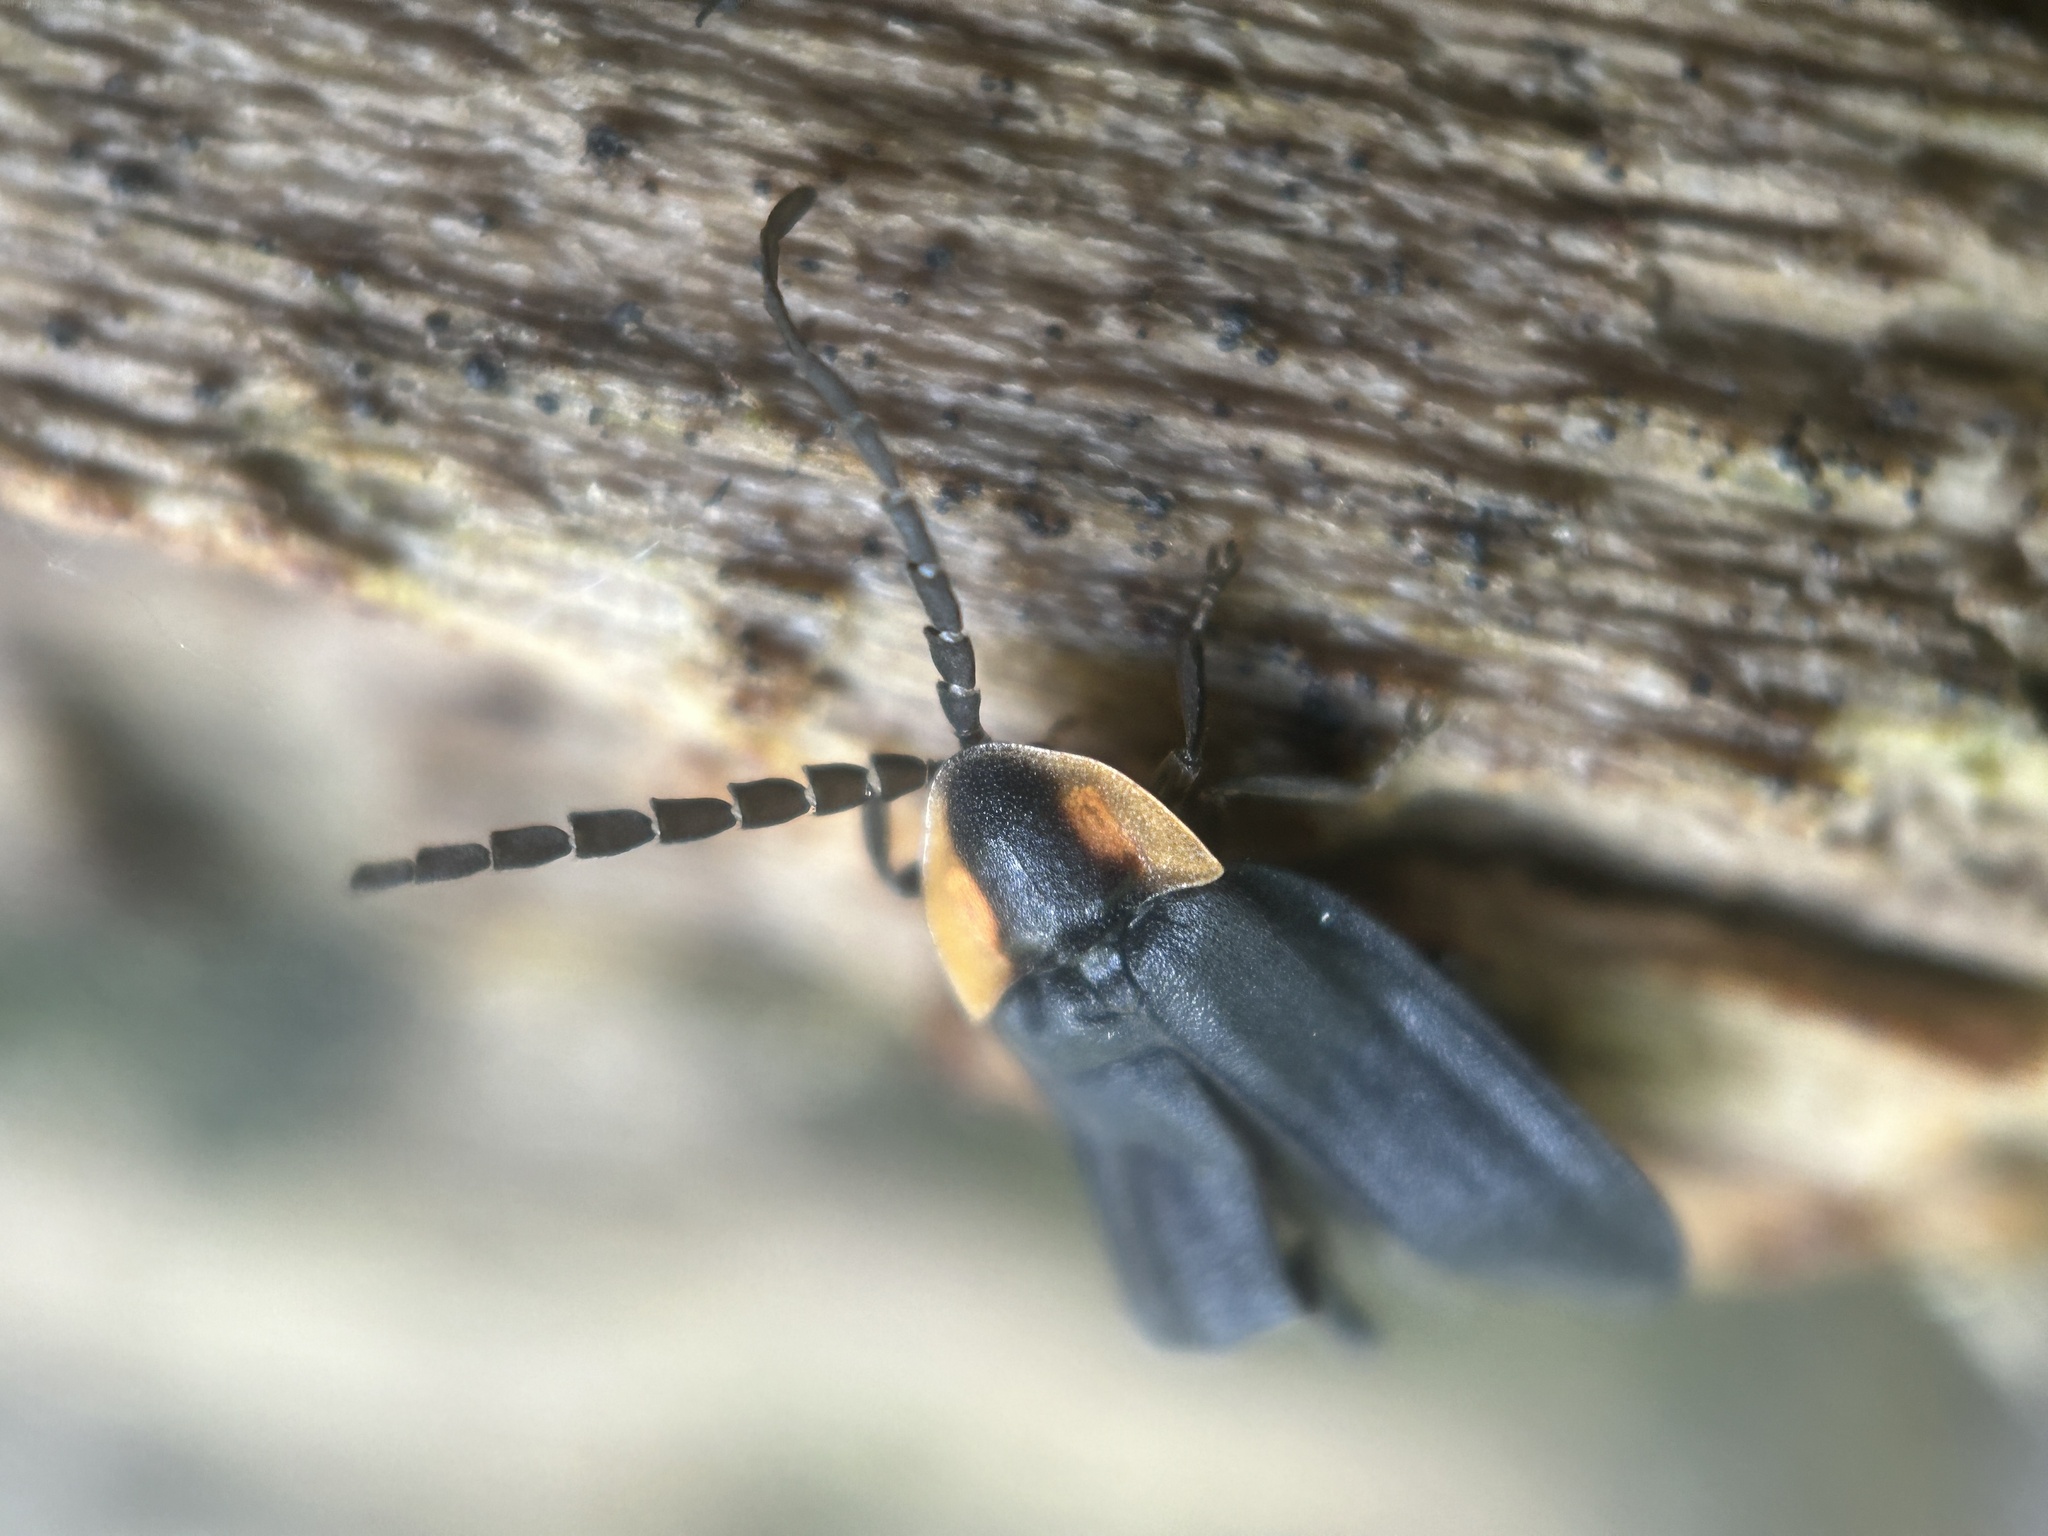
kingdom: Animalia
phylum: Arthropoda
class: Insecta
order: Coleoptera
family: Lampyridae
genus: Lucidota
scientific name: Lucidota atra
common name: Black firefly
